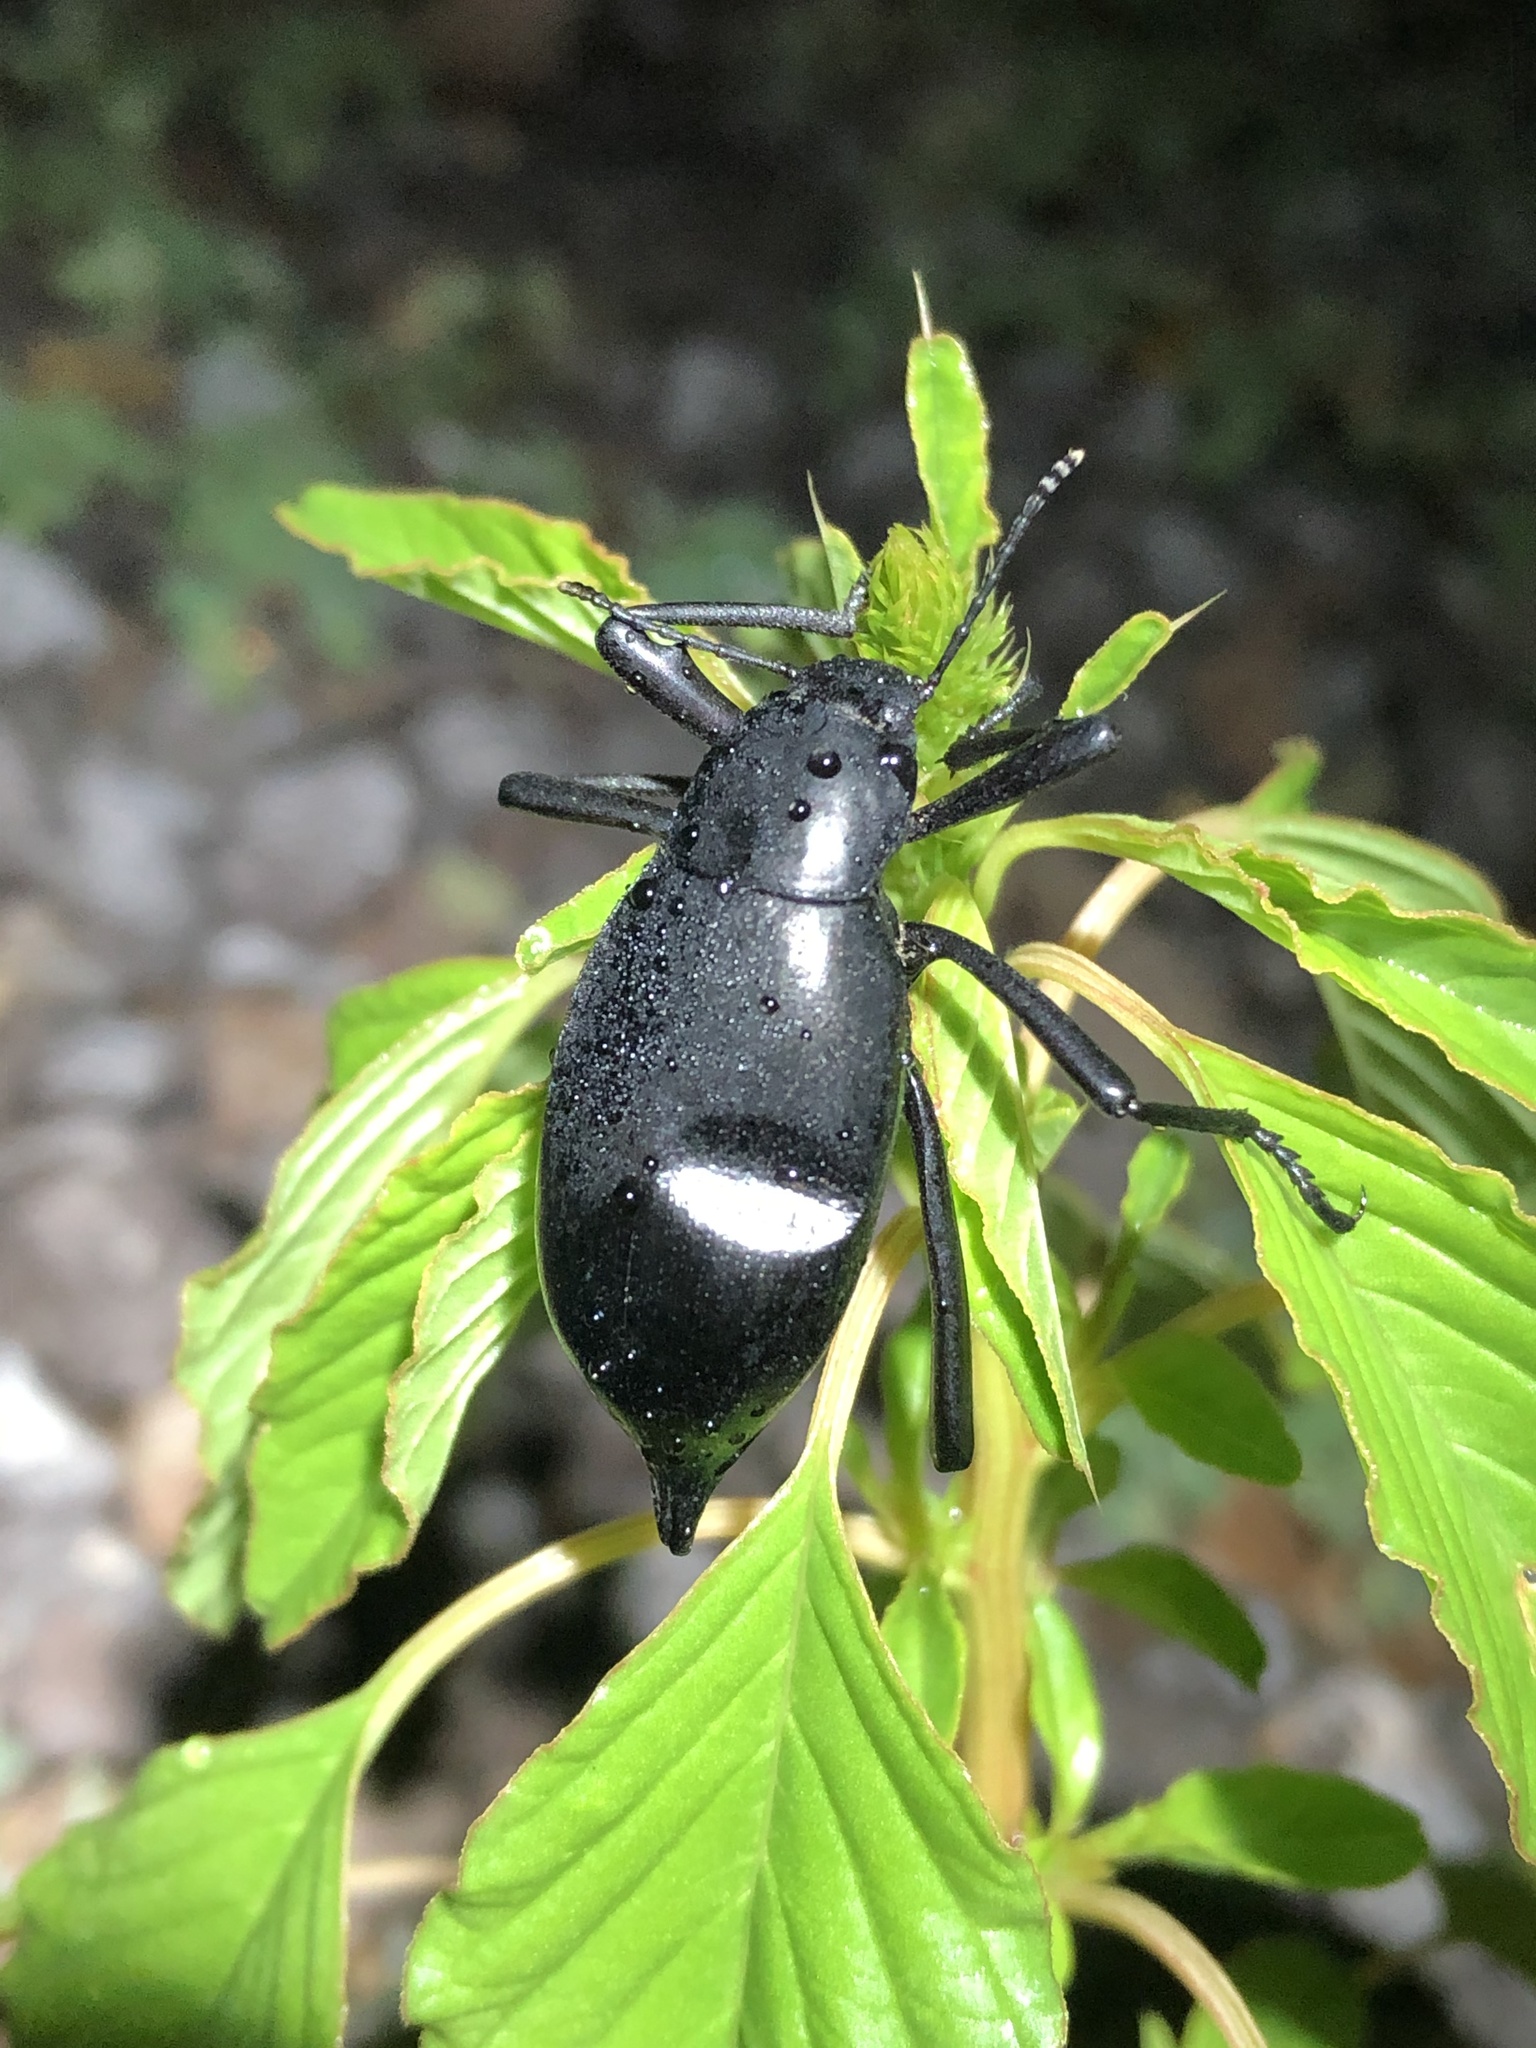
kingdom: Animalia
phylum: Arthropoda
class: Insecta
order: Coleoptera
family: Tenebrionidae
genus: Eleodes
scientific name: Eleodes spinipes
